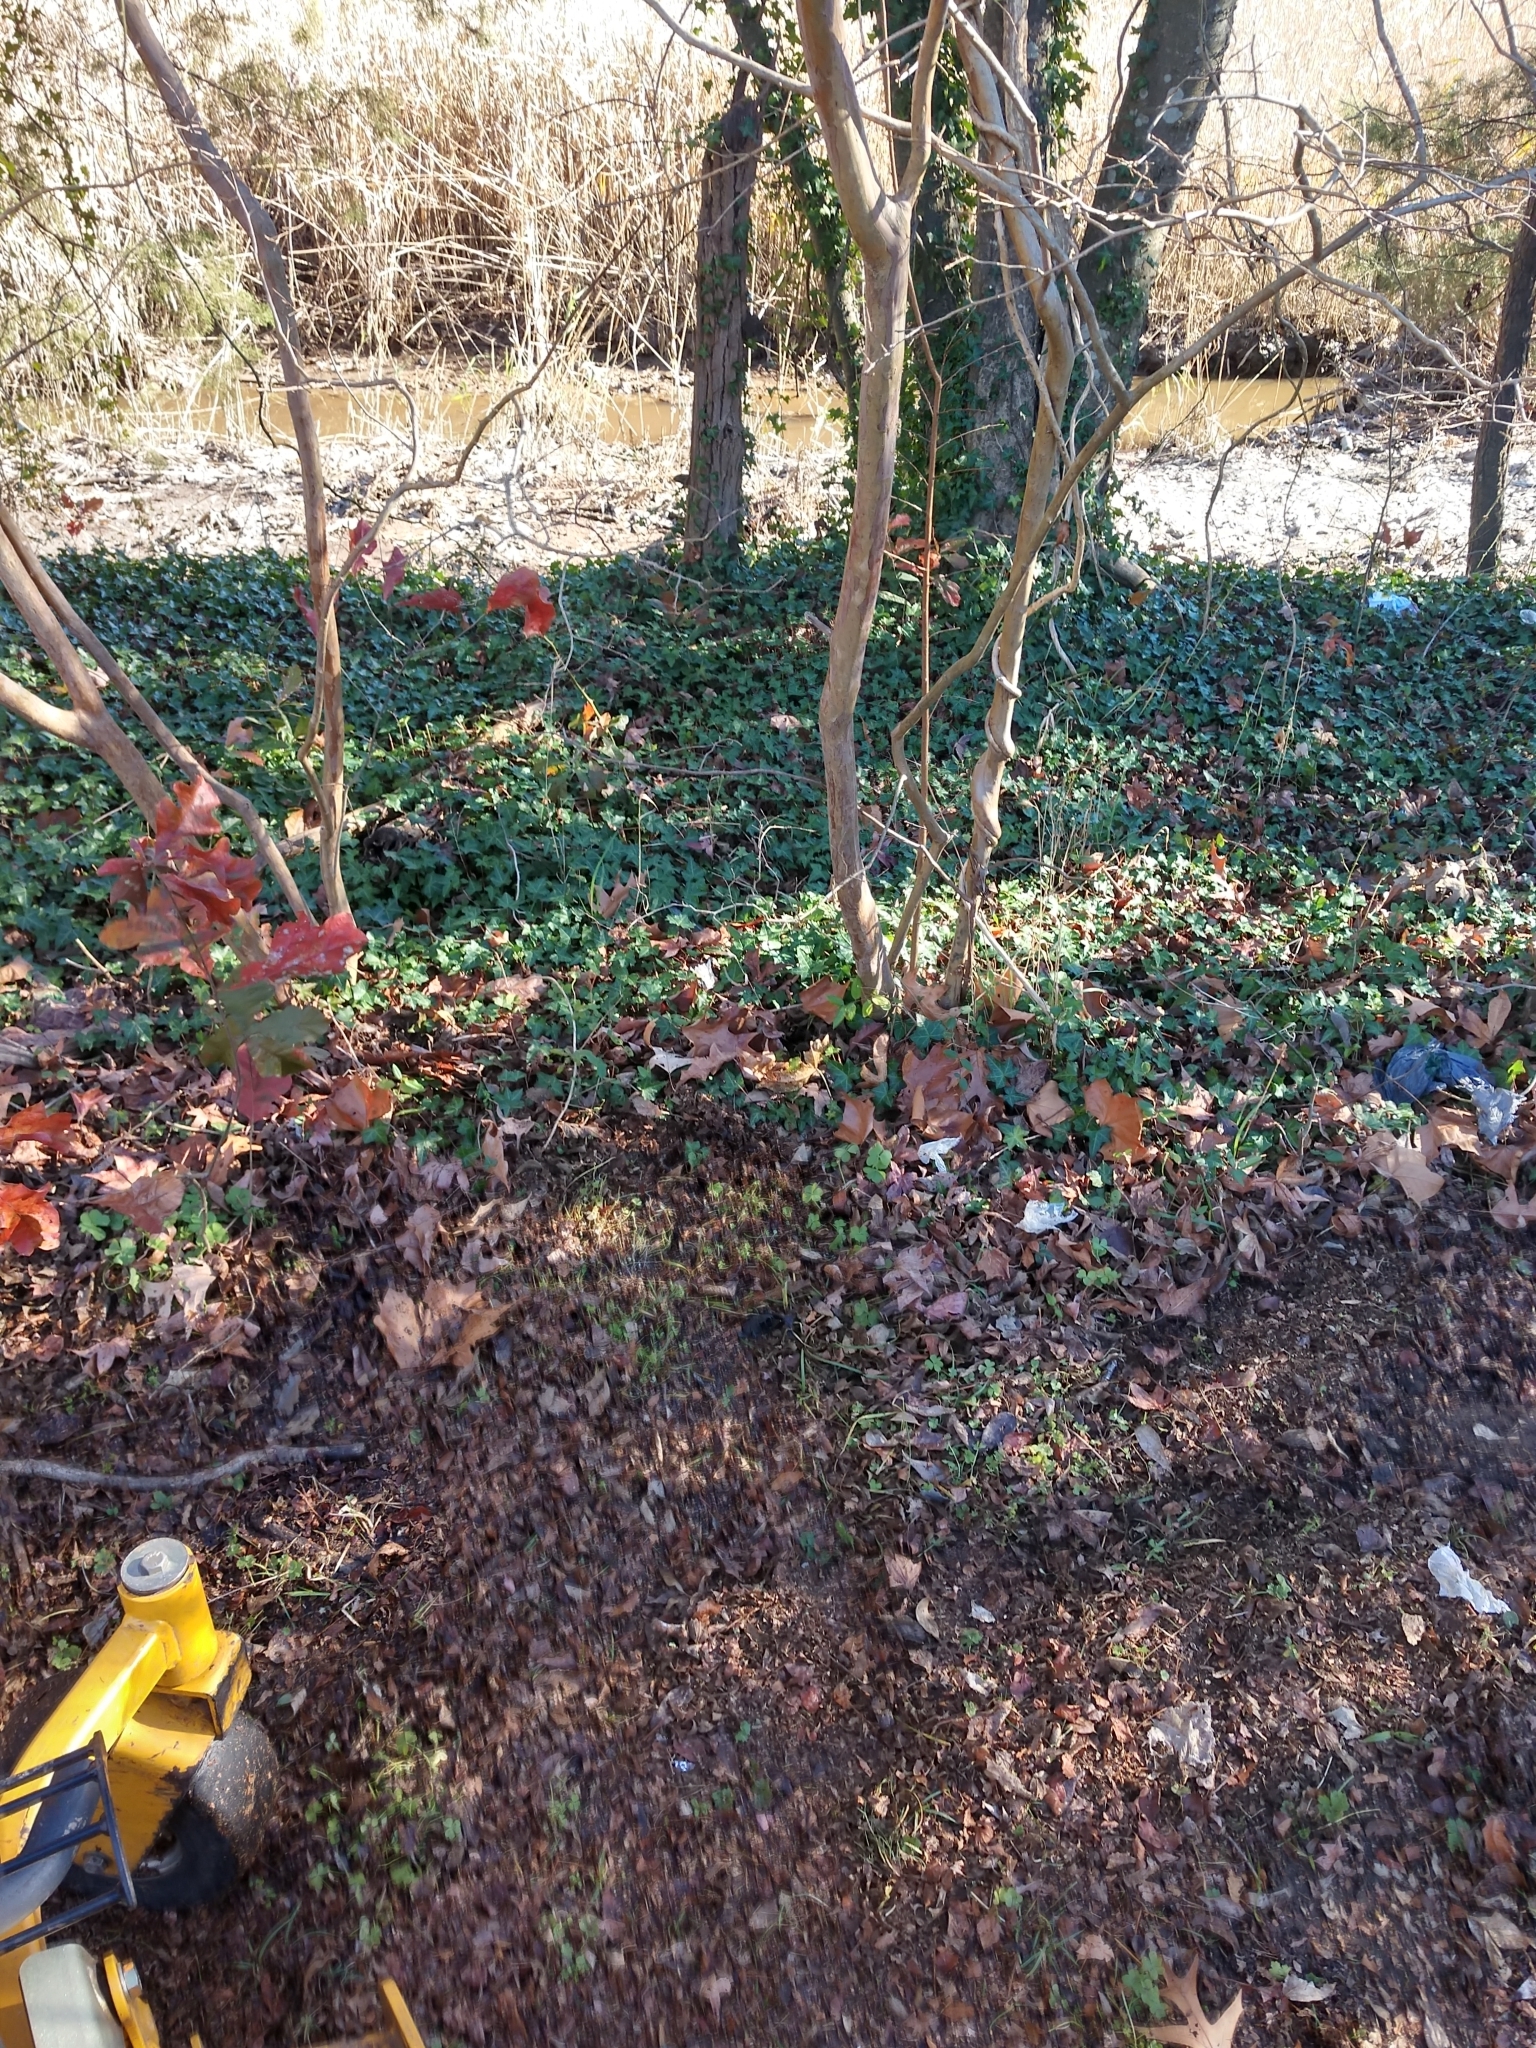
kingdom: Plantae
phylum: Tracheophyta
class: Magnoliopsida
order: Apiales
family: Araliaceae
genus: Hedera
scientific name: Hedera helix
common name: Ivy
